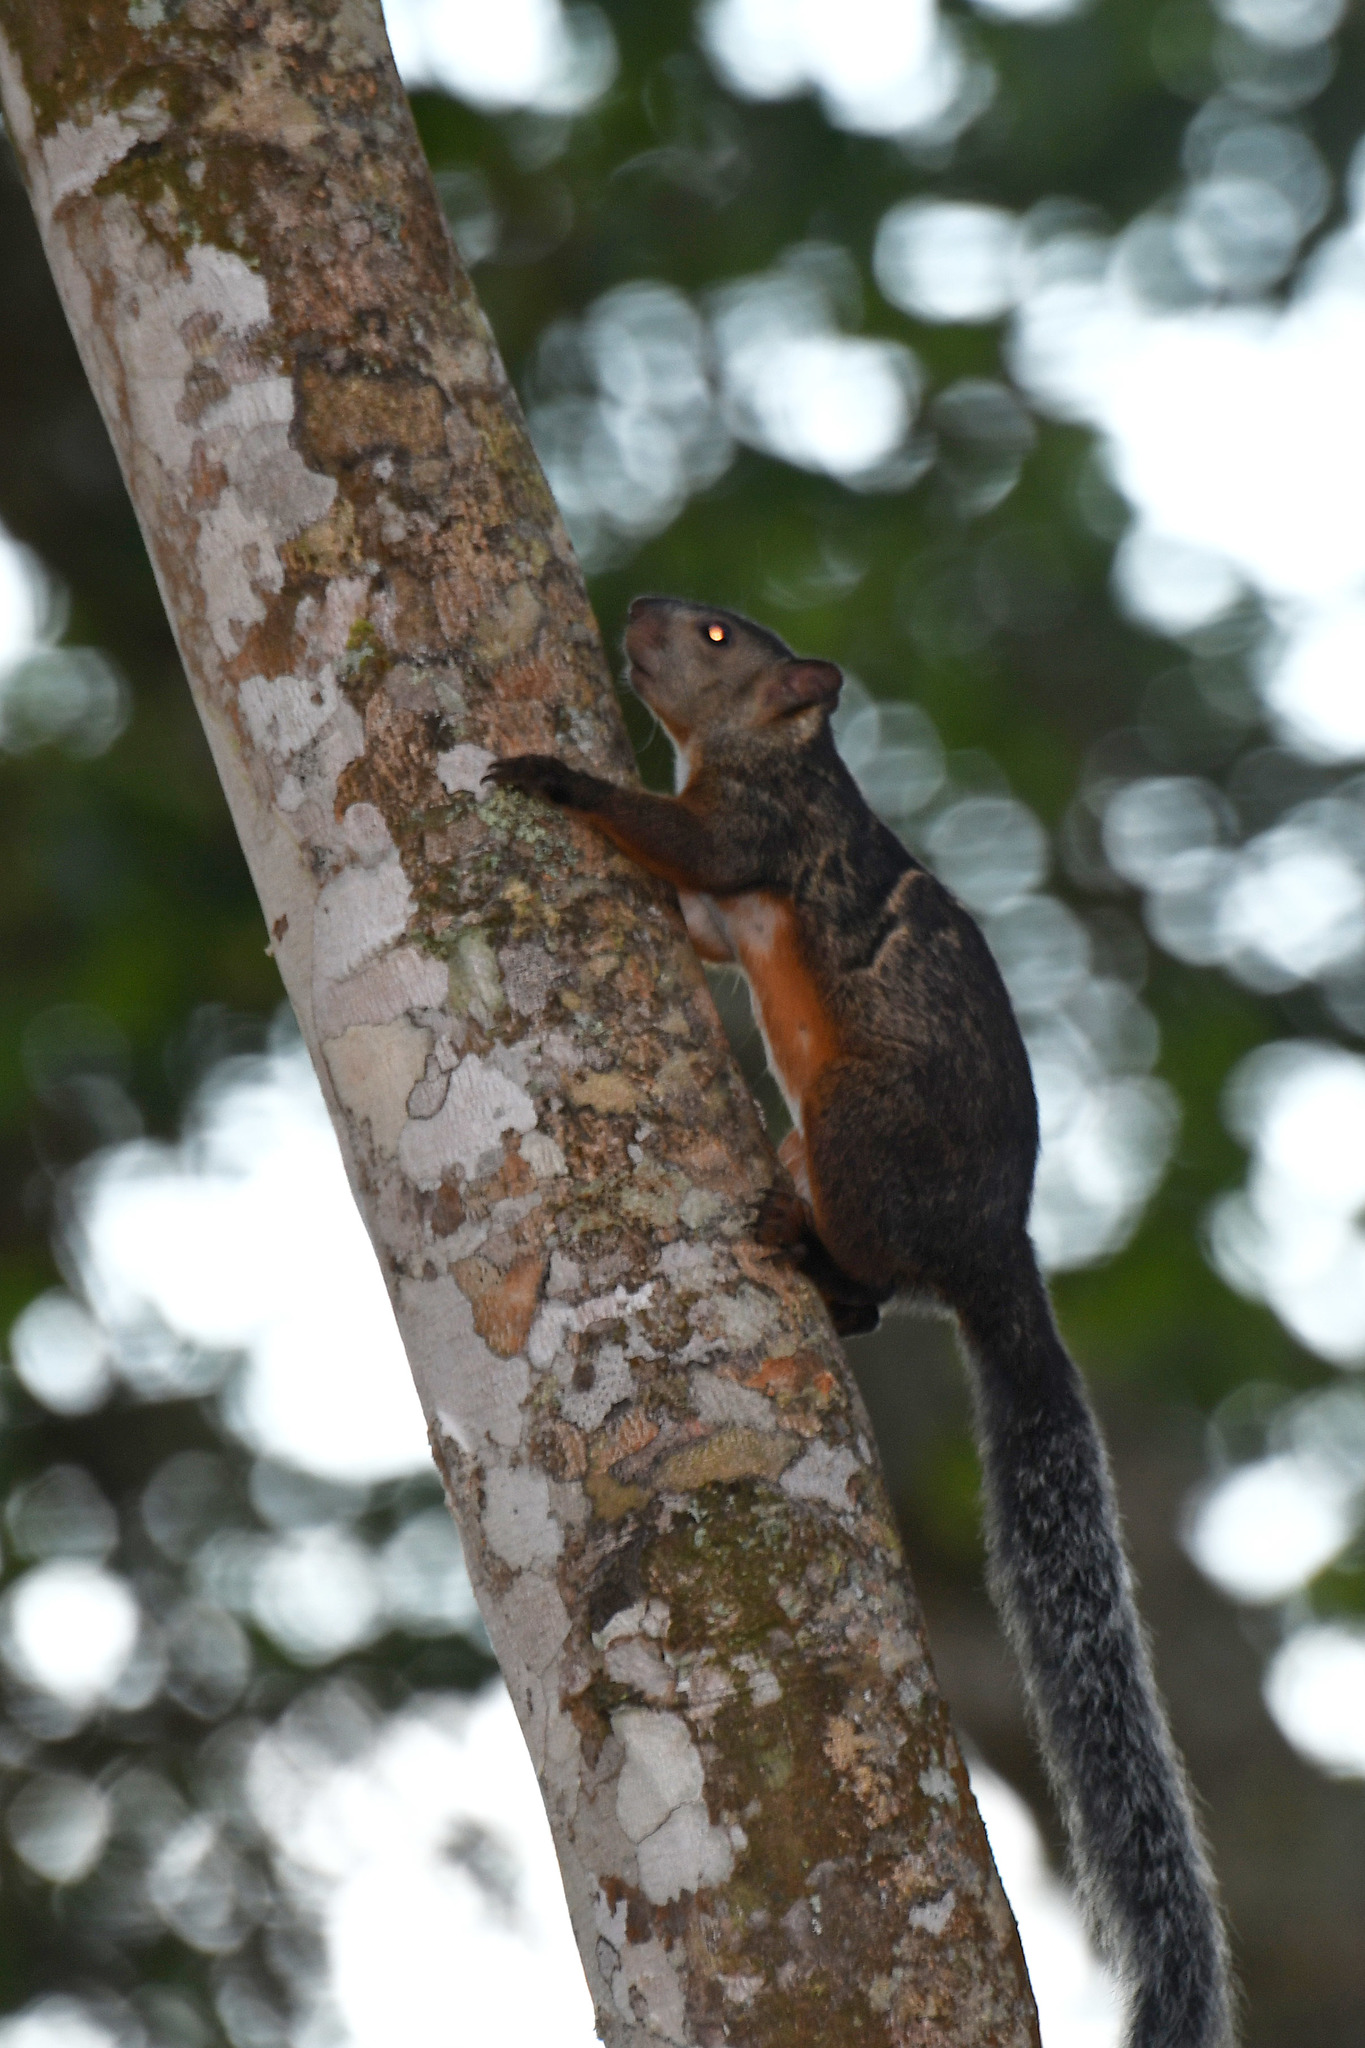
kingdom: Animalia
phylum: Chordata
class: Mammalia
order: Rodentia
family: Sciuridae
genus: Sciurus
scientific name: Sciurus variegatoides
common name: Variegated squirrel
